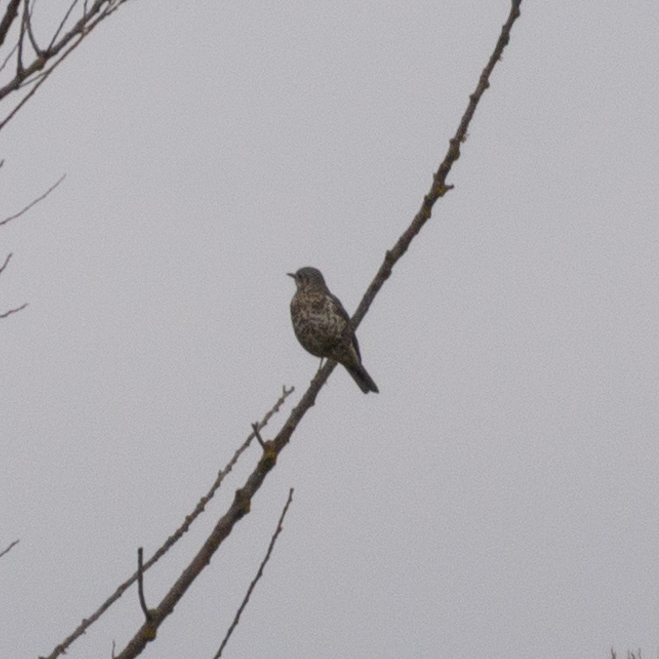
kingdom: Animalia
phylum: Chordata
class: Aves
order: Passeriformes
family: Turdidae
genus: Turdus
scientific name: Turdus viscivorus
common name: Mistle thrush
